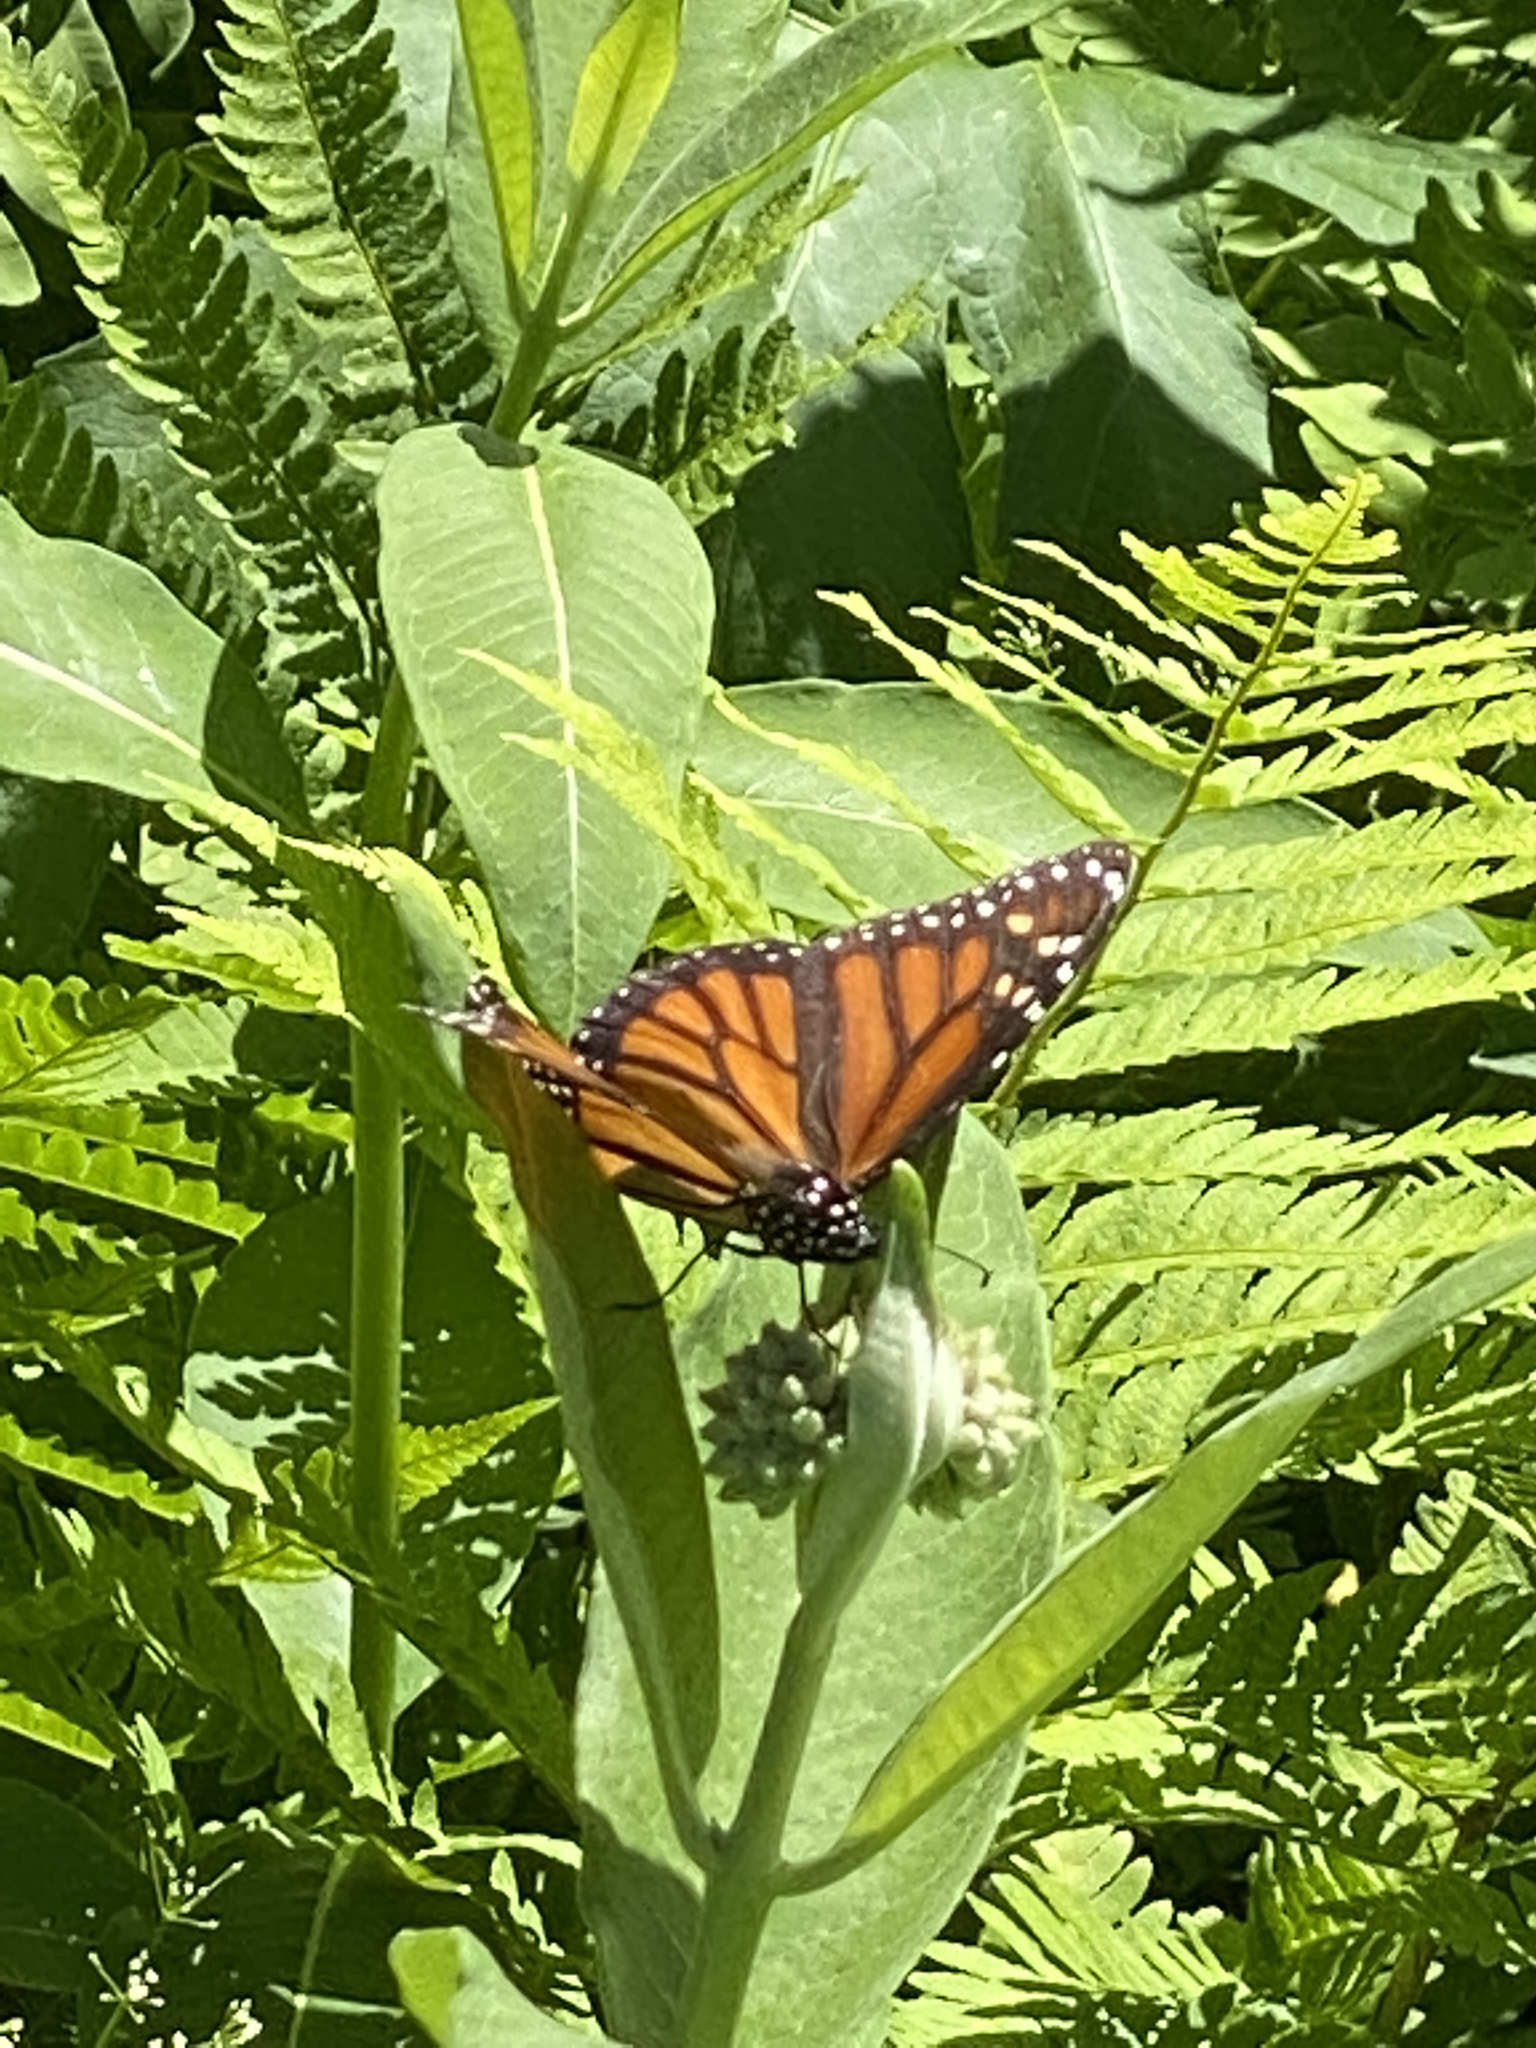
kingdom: Animalia
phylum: Arthropoda
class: Insecta
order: Lepidoptera
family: Nymphalidae
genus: Danaus
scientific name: Danaus plexippus
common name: Monarch
